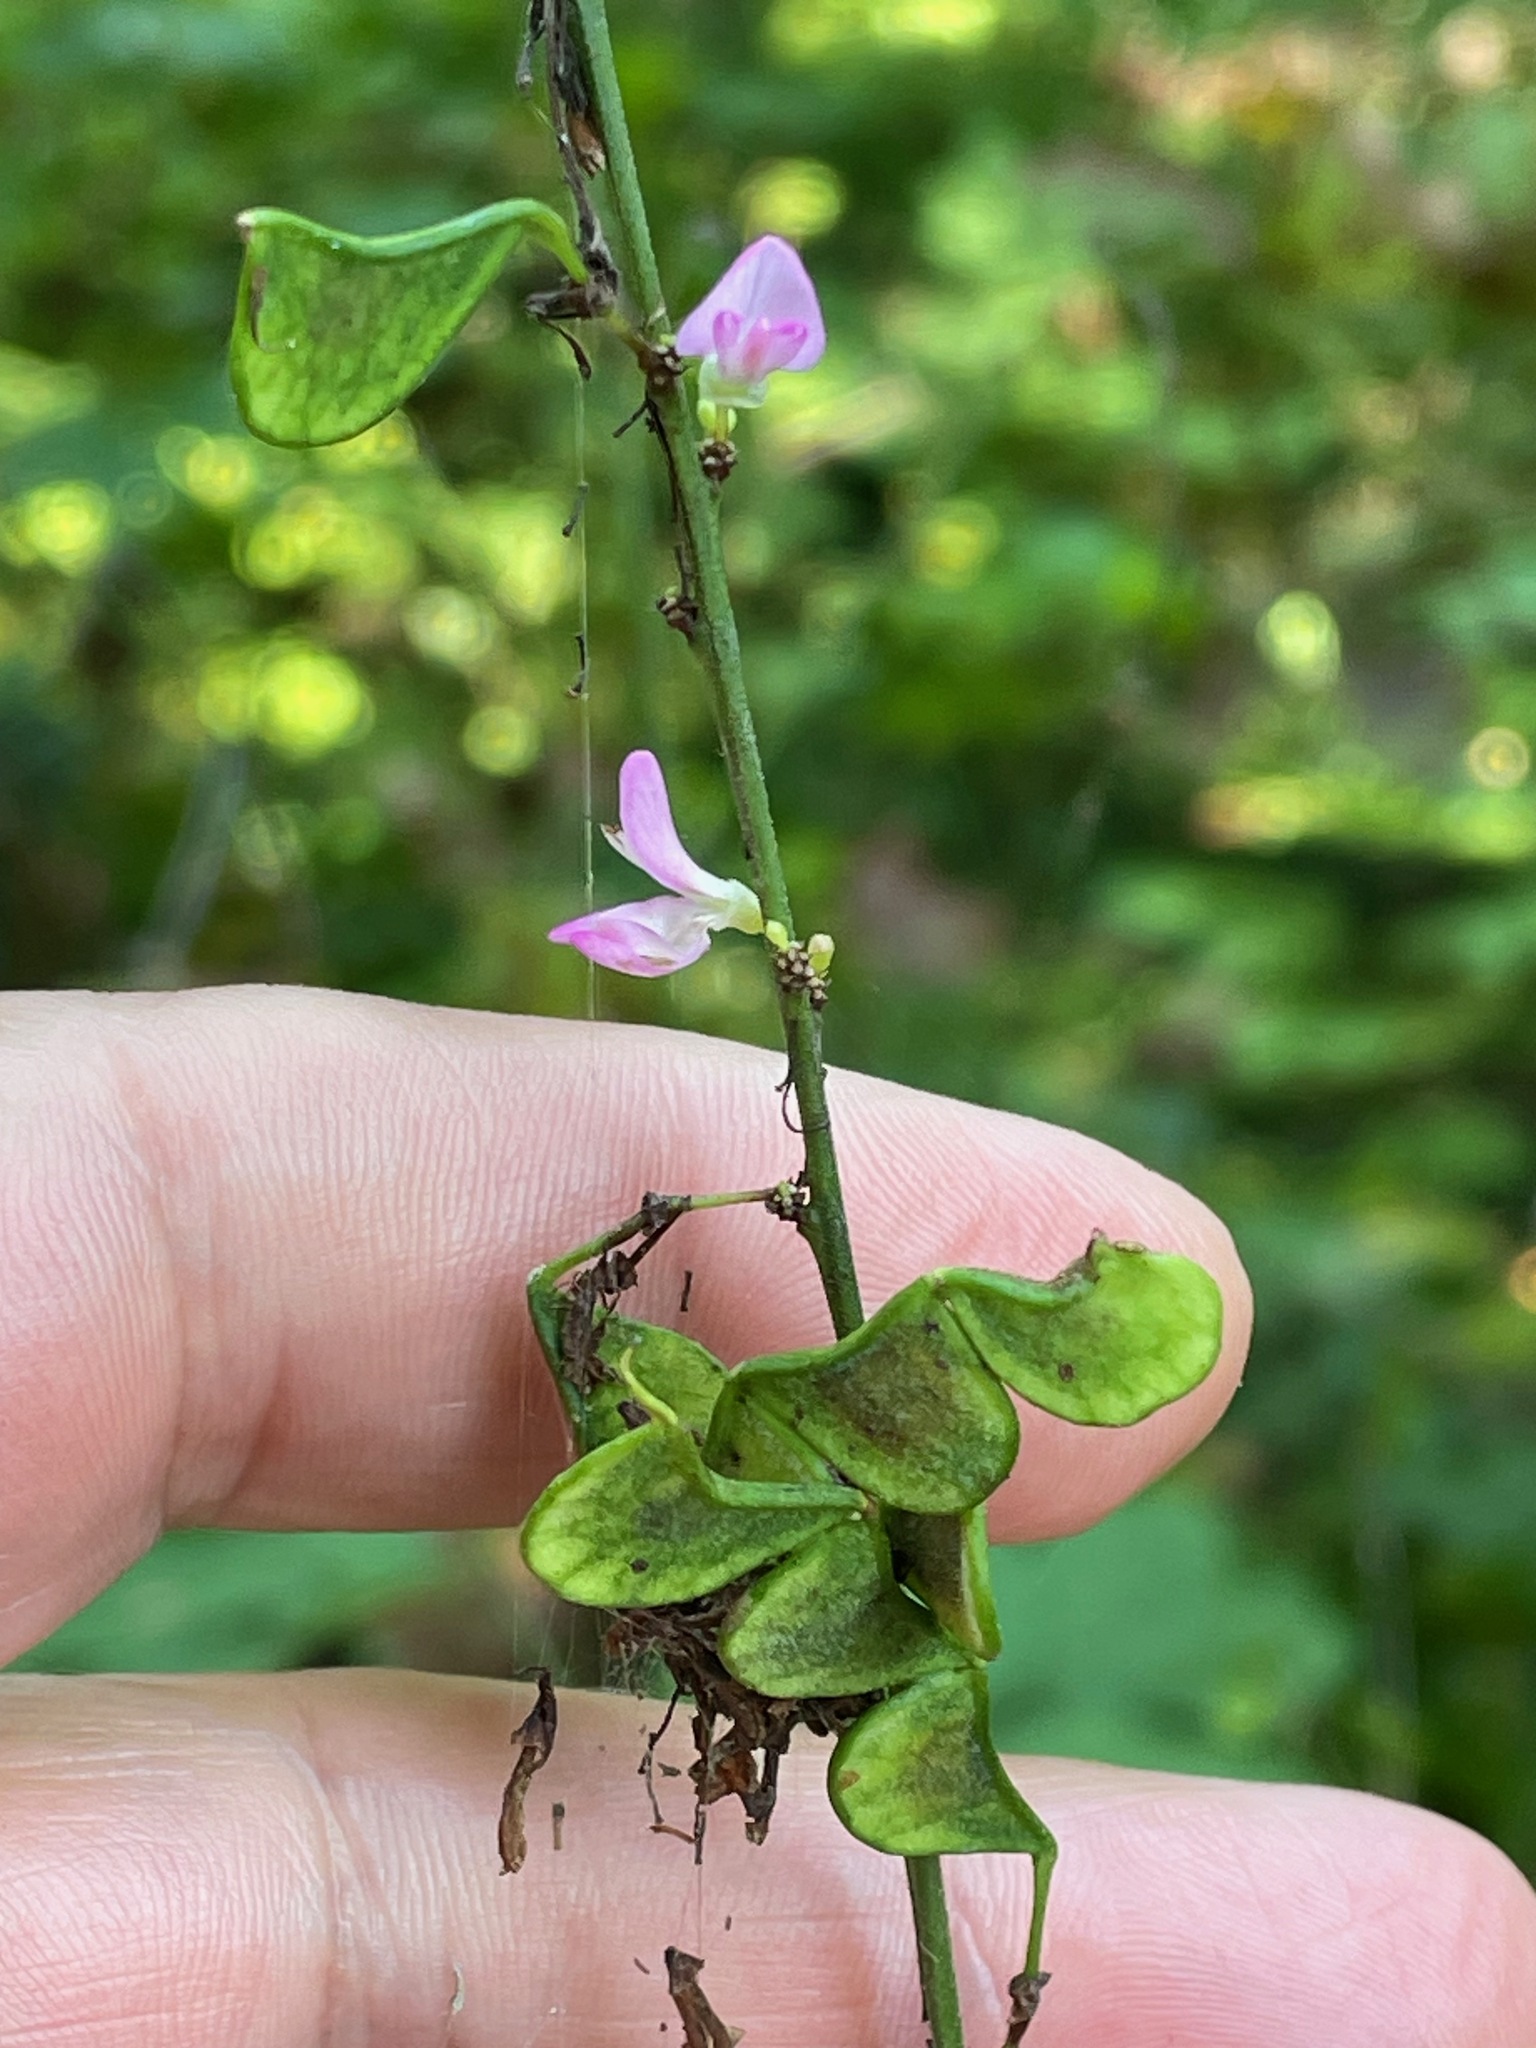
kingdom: Plantae
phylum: Tracheophyta
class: Magnoliopsida
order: Fabales
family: Fabaceae
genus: Hylodesmum
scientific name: Hylodesmum glutinosum
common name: Clustered-leaved tick-trefoil
